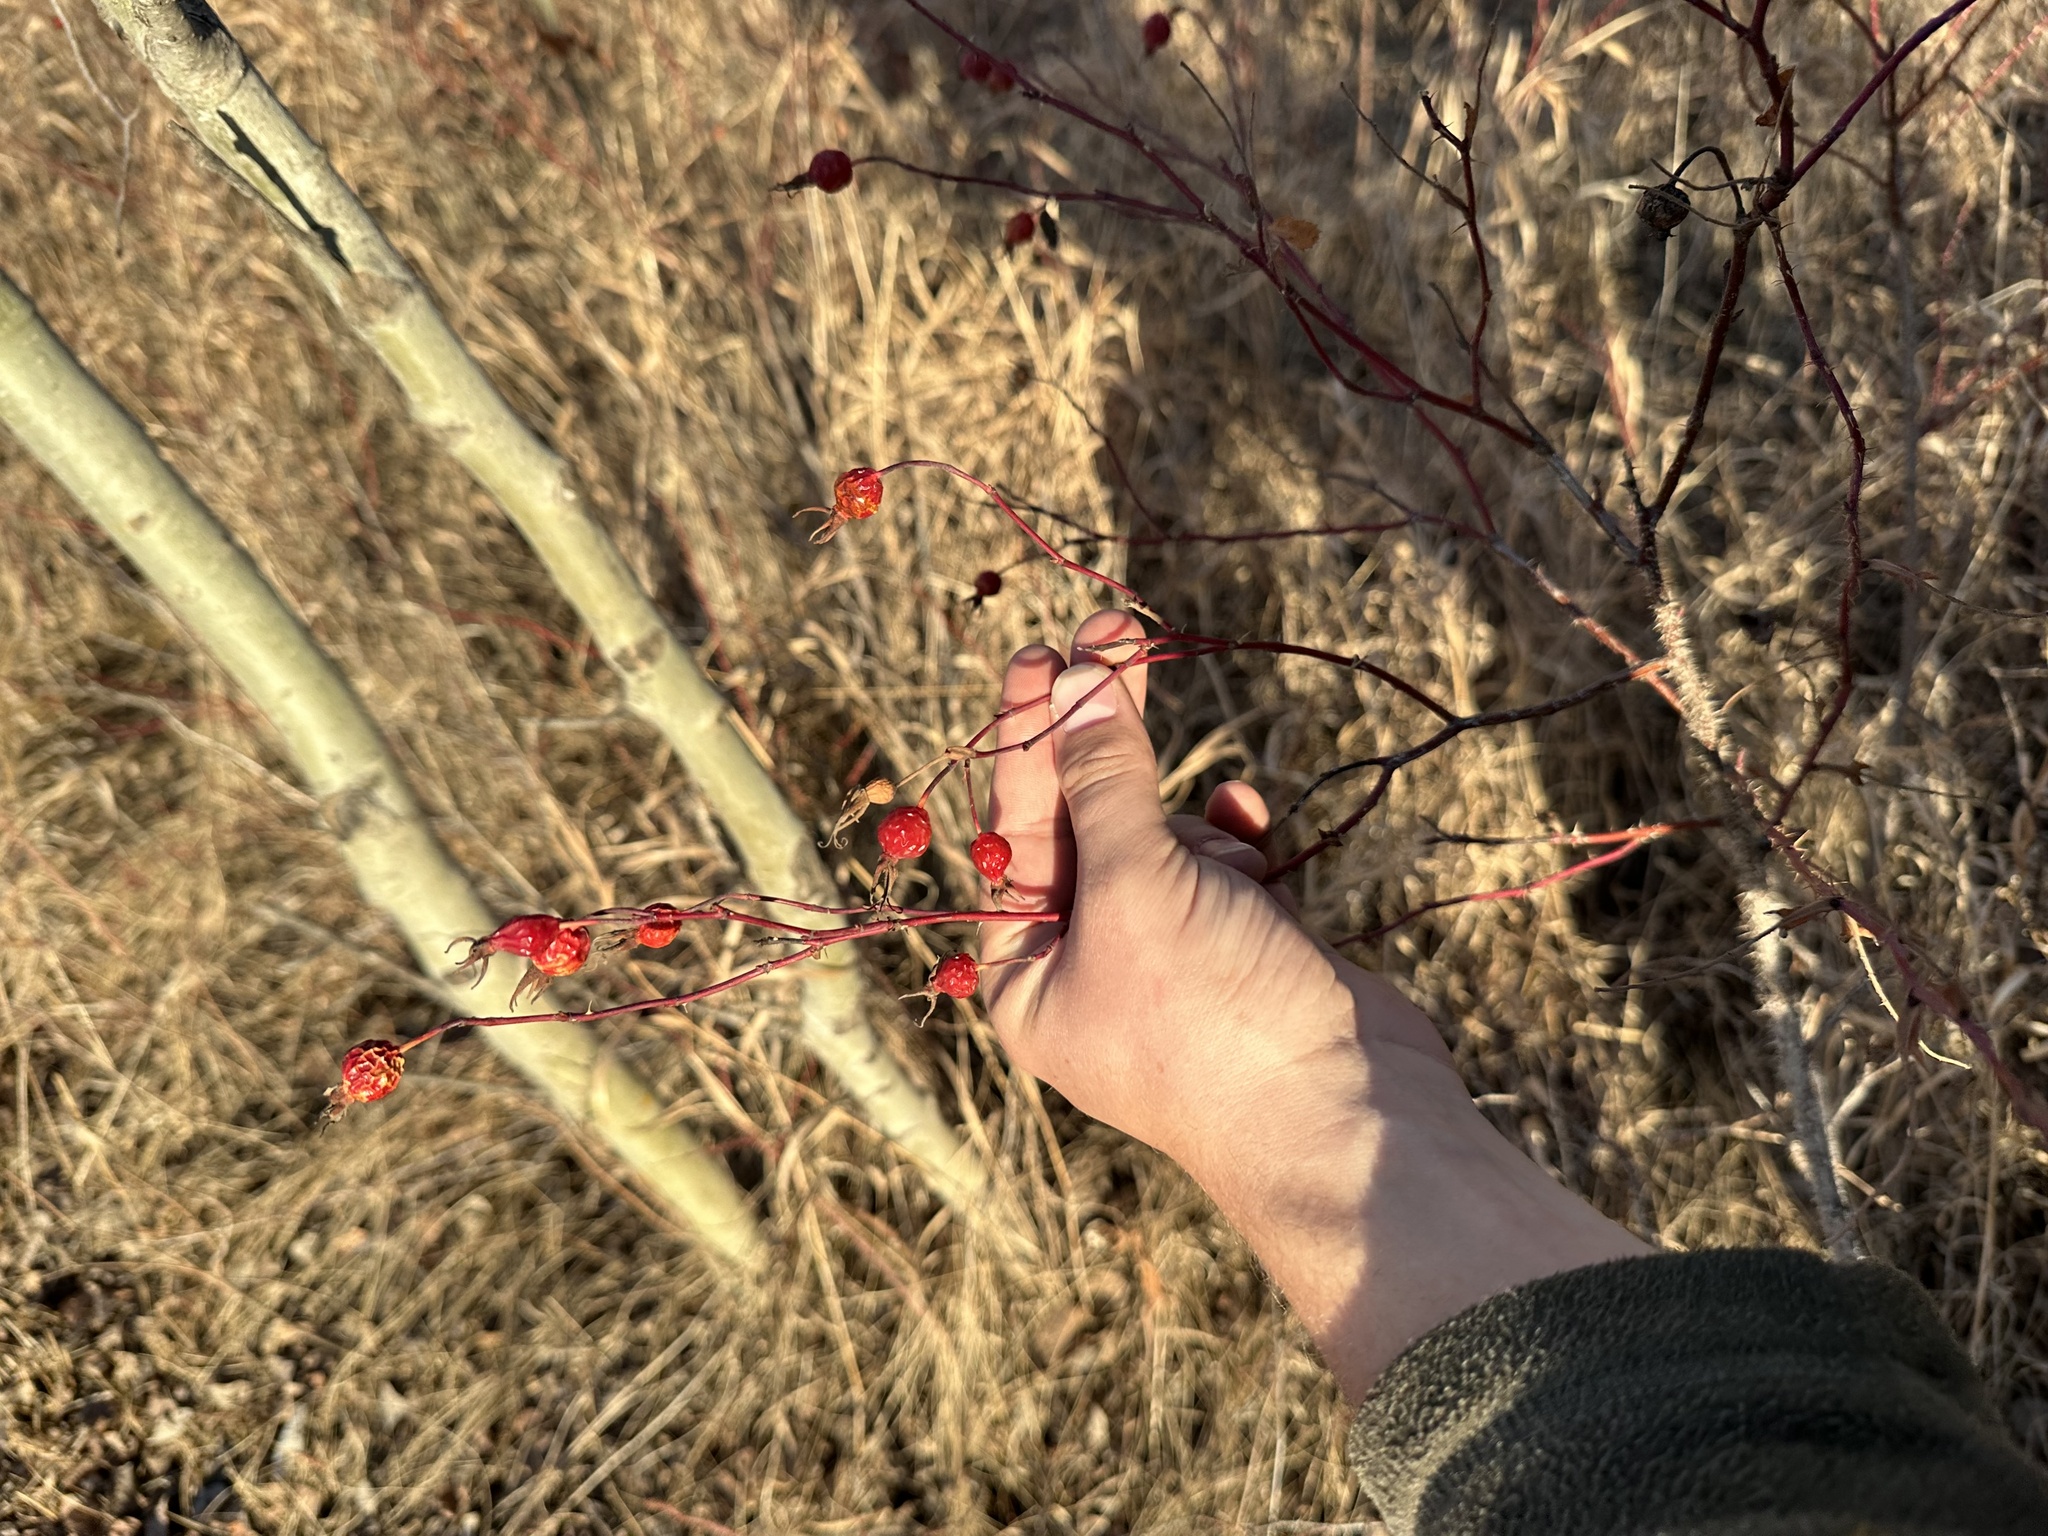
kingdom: Plantae
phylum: Tracheophyta
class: Magnoliopsida
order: Rosales
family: Rosaceae
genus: Rosa
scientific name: Rosa woodsii
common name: Woods's rose
